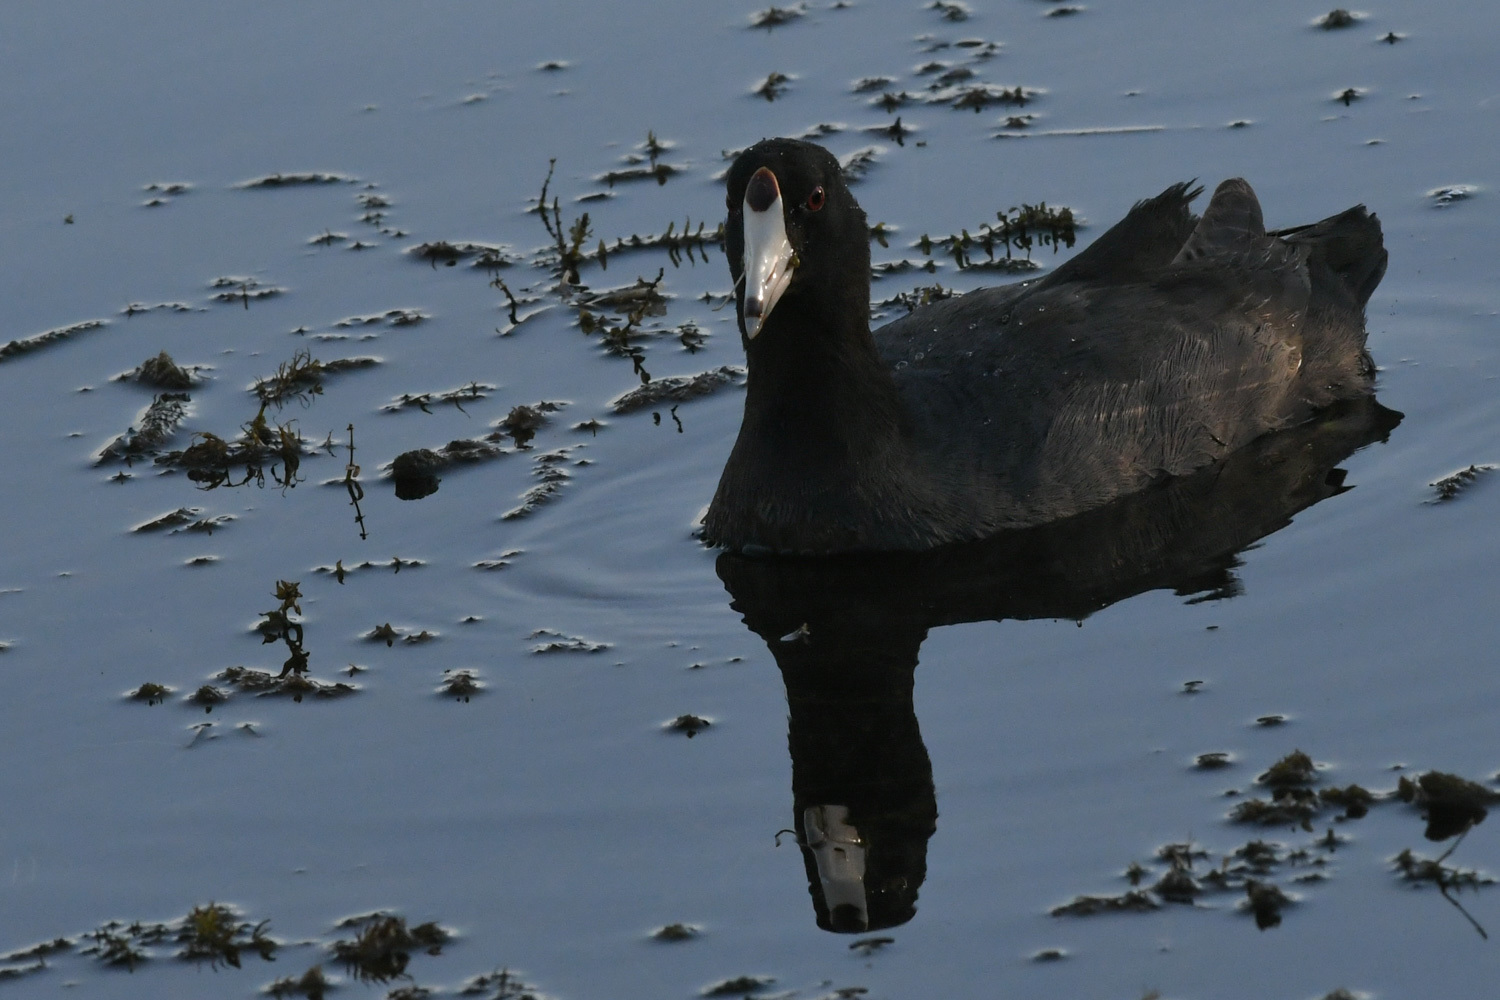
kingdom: Animalia
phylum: Chordata
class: Aves
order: Gruiformes
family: Rallidae
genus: Fulica
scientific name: Fulica americana
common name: American coot
